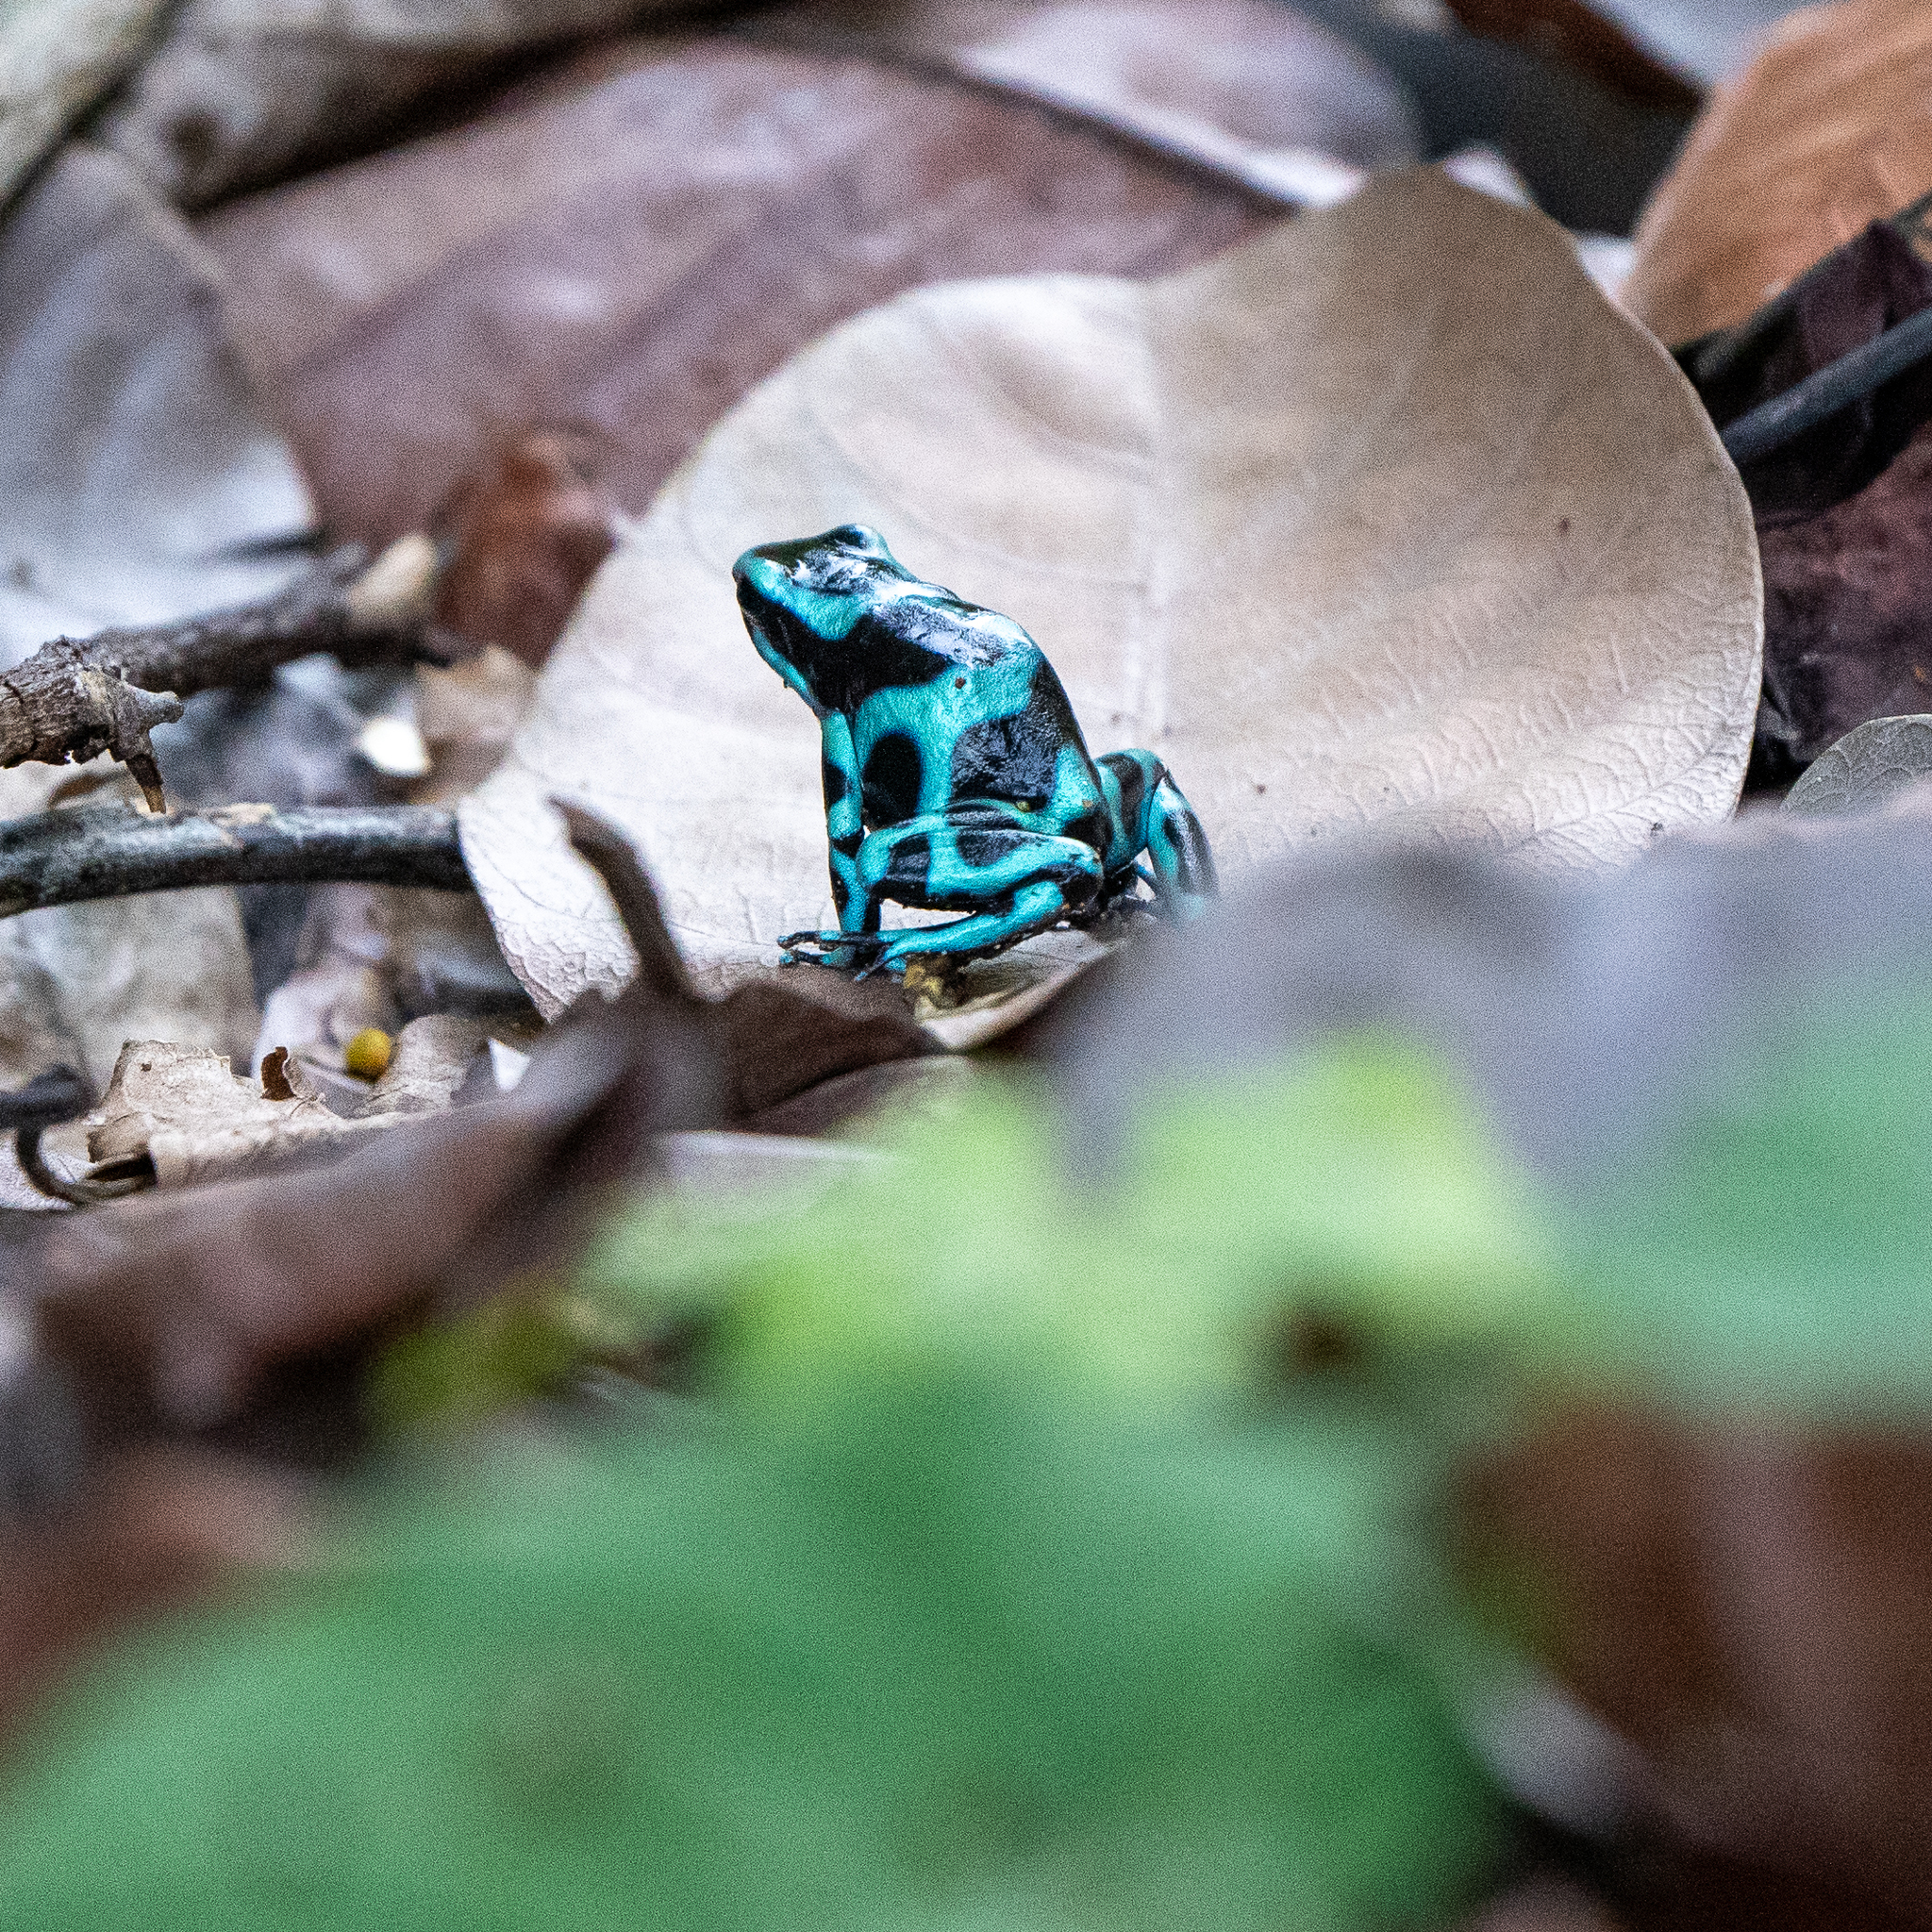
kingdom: Animalia
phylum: Chordata
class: Amphibia
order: Anura
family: Dendrobatidae
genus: Dendrobates
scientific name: Dendrobates auratus
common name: Green and black poison dart frog
